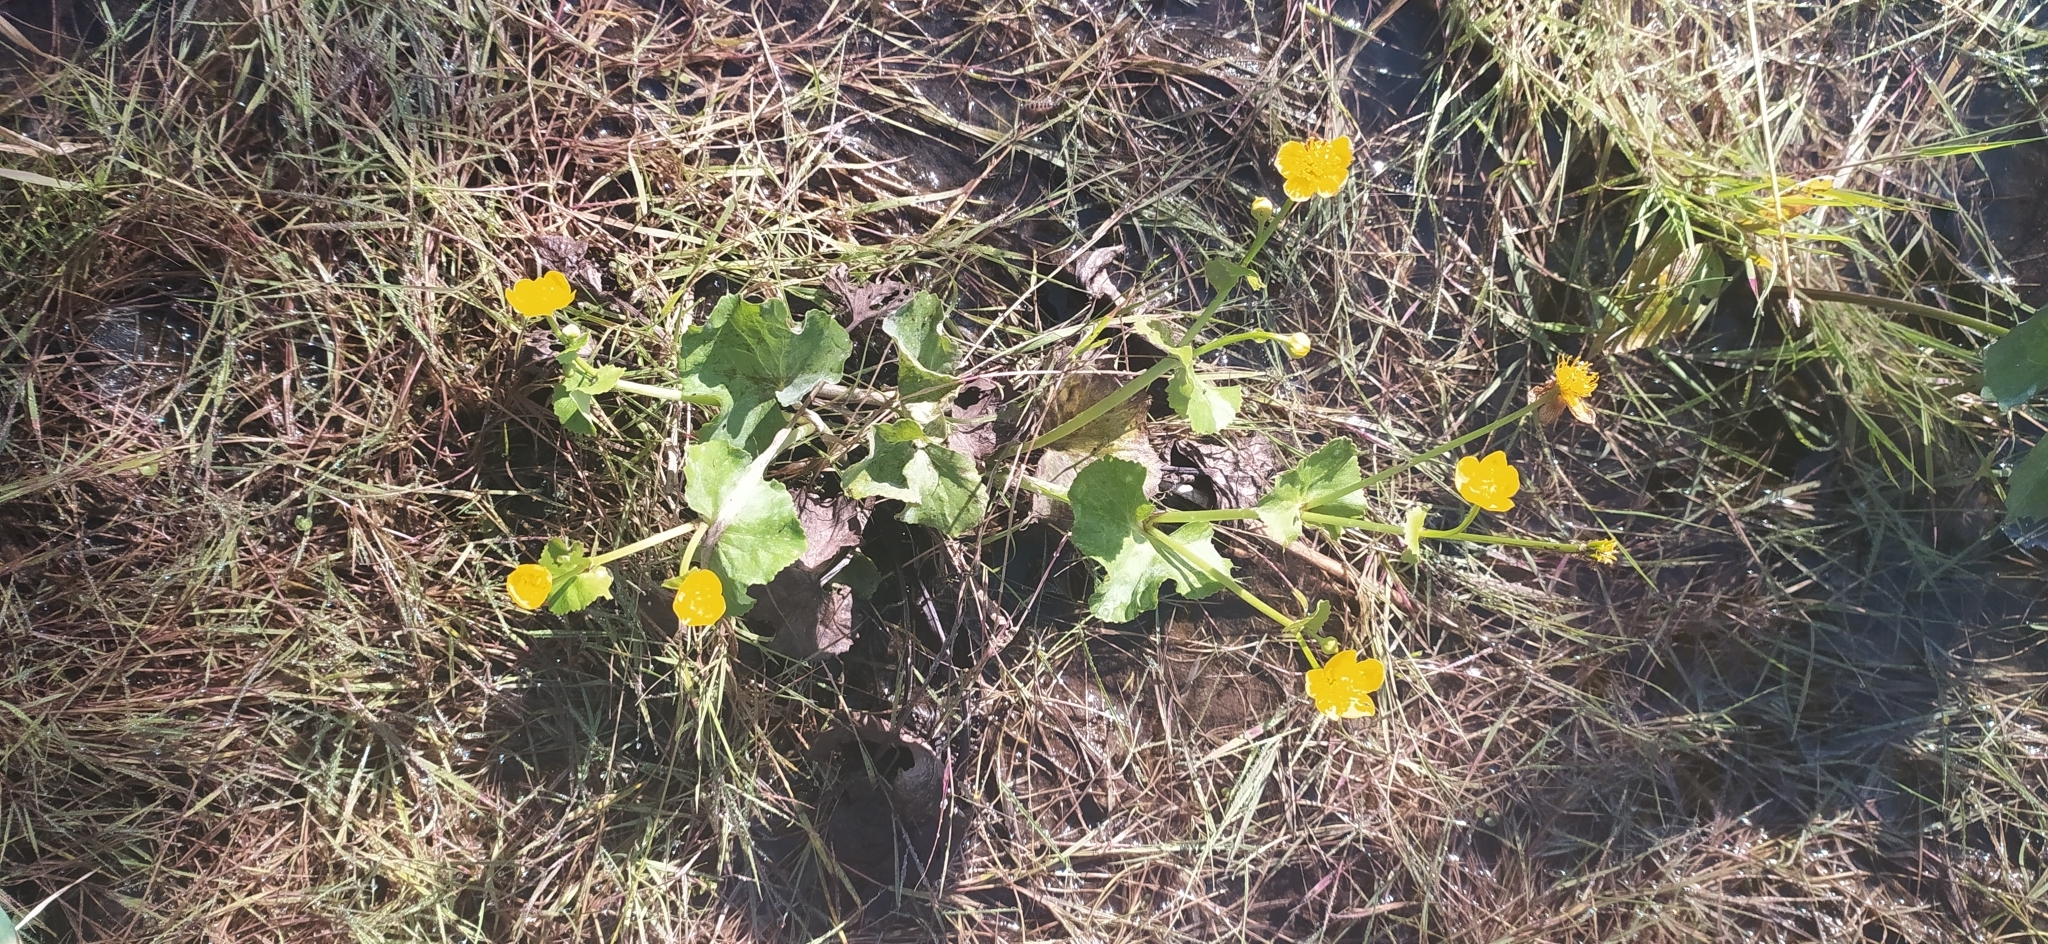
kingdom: Plantae
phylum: Tracheophyta
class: Magnoliopsida
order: Ranunculales
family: Ranunculaceae
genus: Caltha
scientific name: Caltha palustris
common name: Marsh marigold
